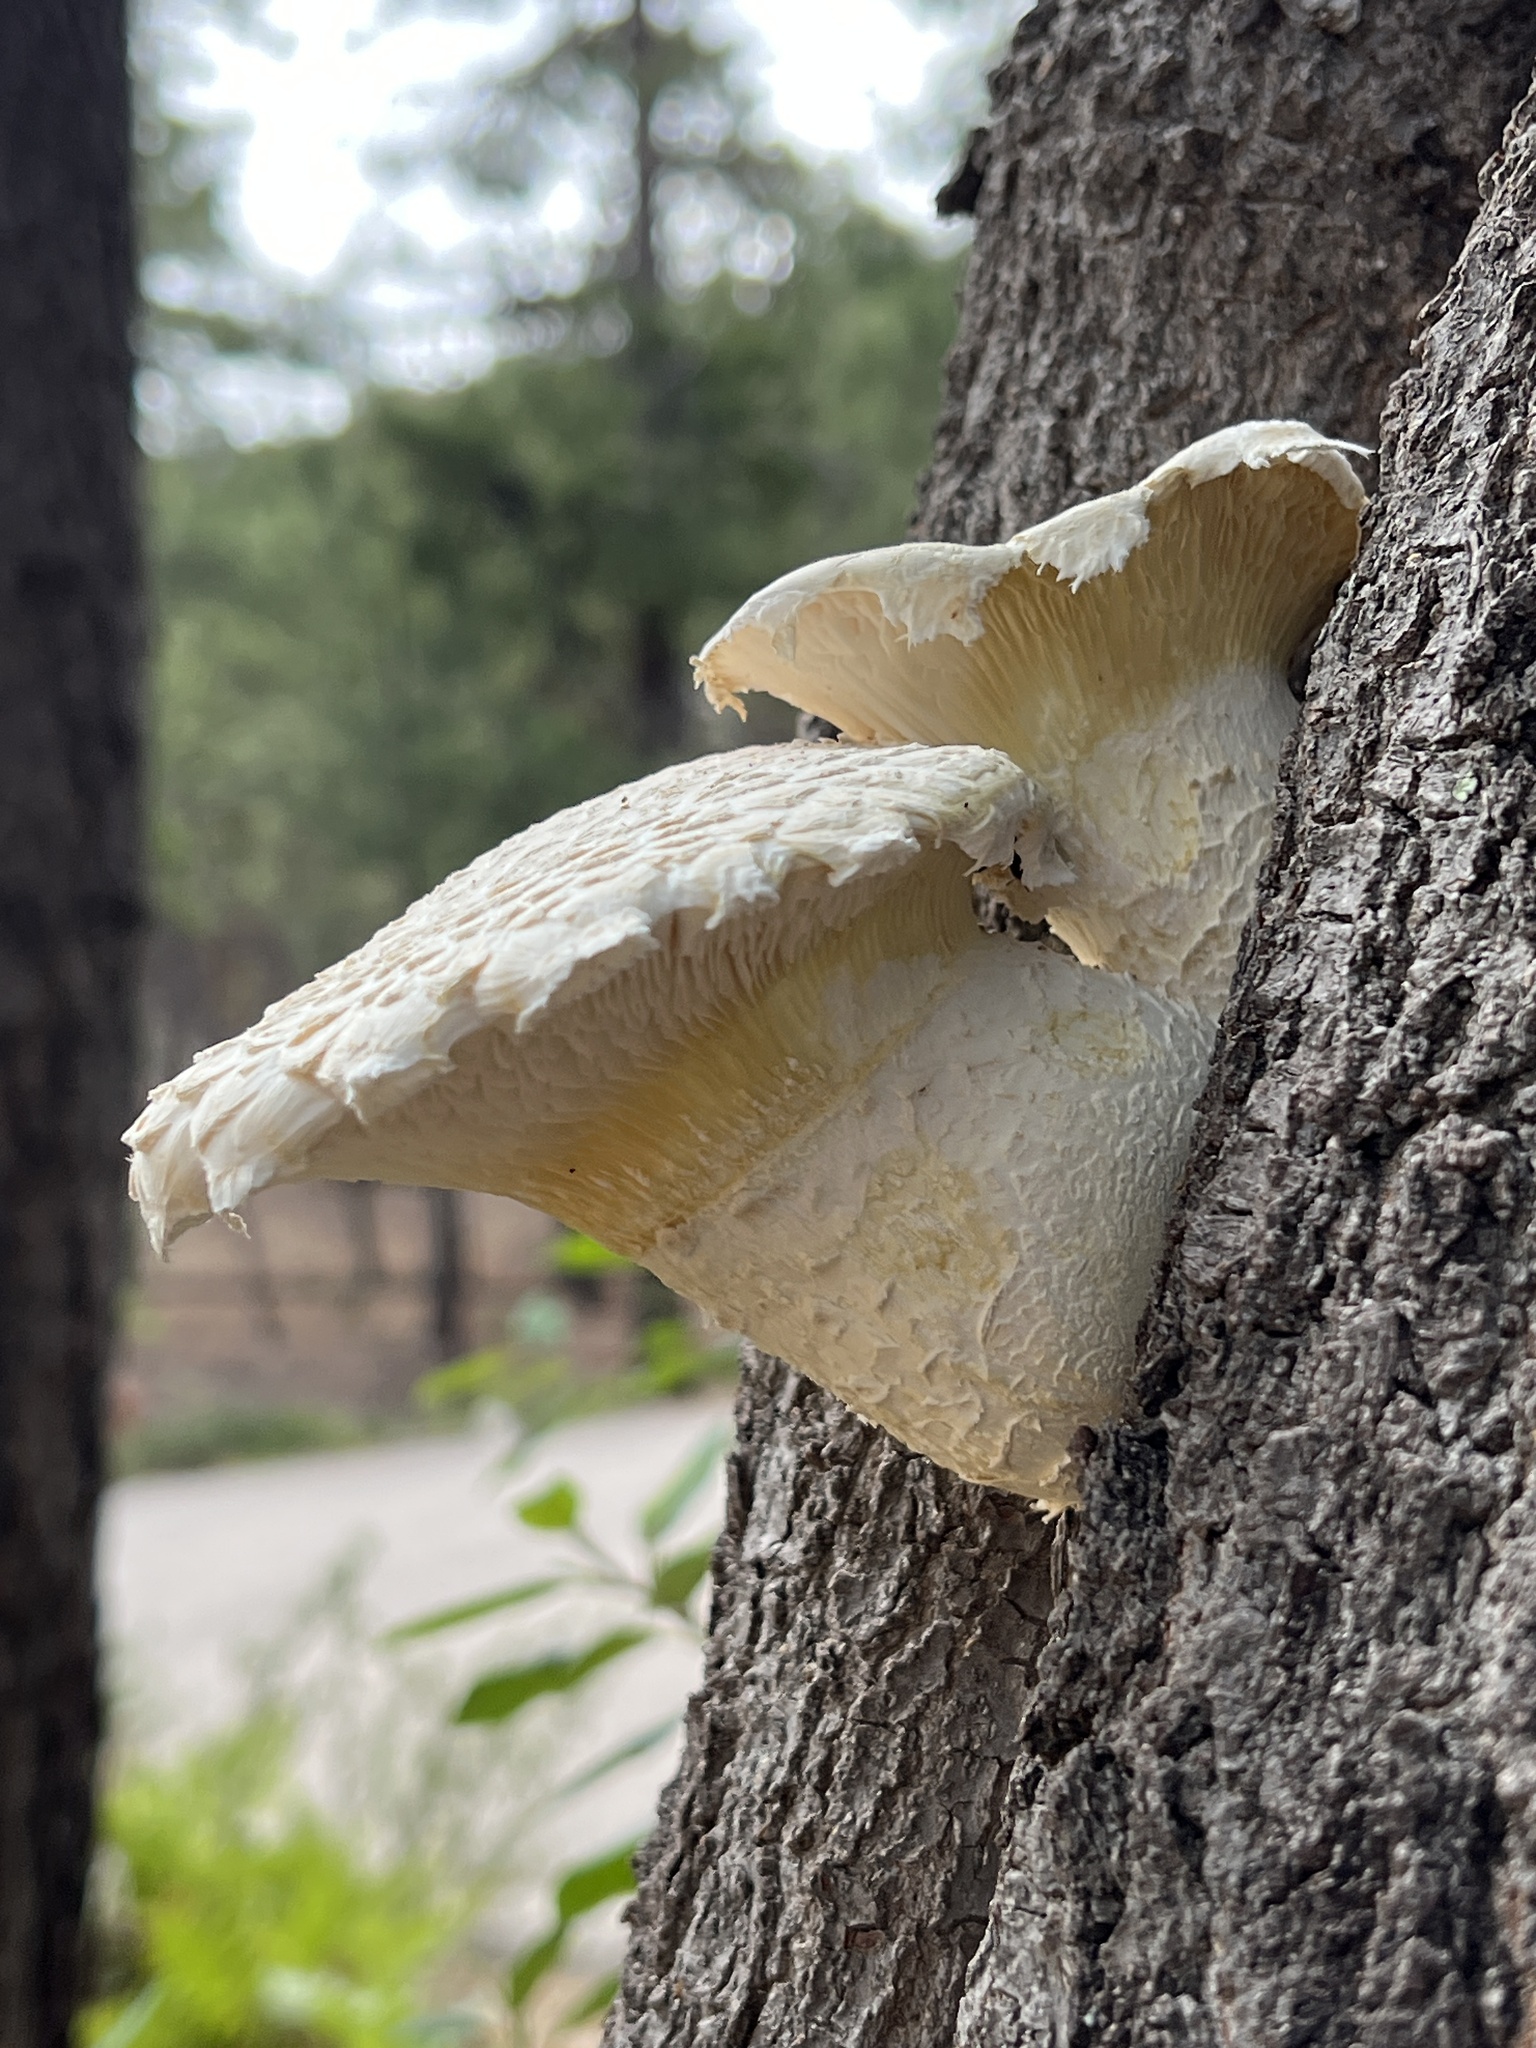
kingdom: Fungi
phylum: Basidiomycota
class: Agaricomycetes
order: Polyporales
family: Polyporaceae
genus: Lentinus
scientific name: Lentinus levis
